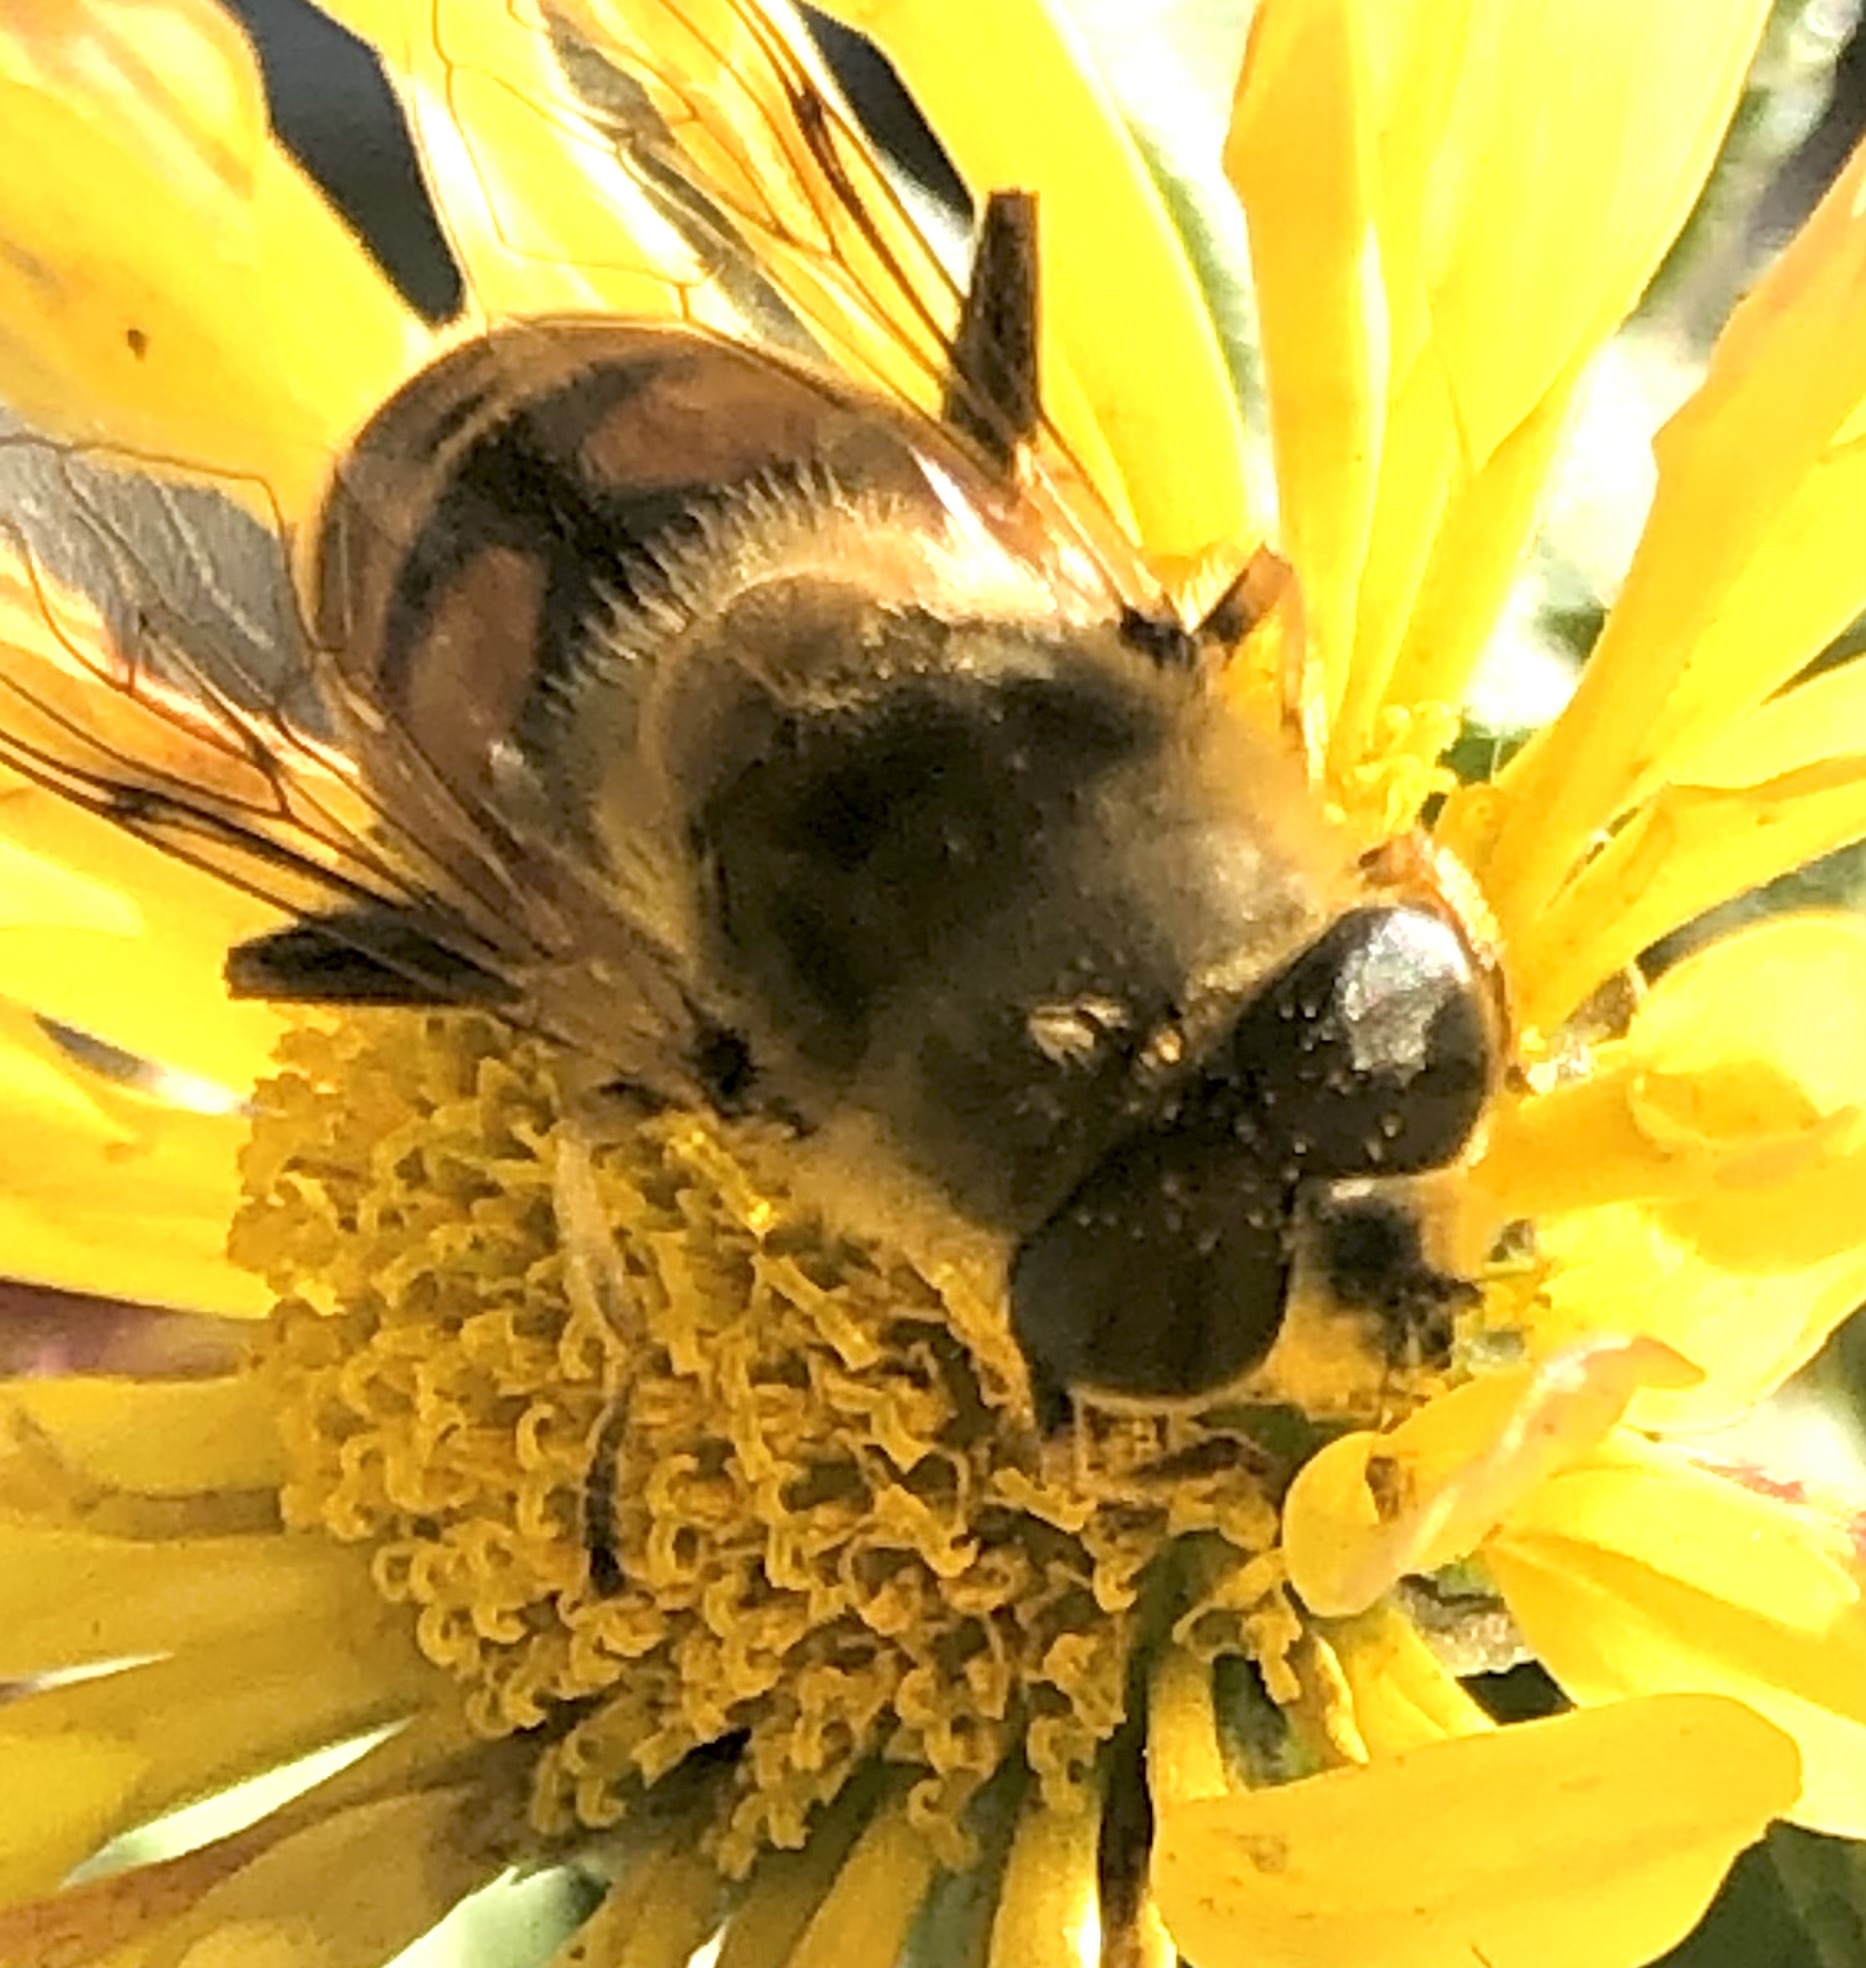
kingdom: Animalia
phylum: Arthropoda
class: Insecta
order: Diptera
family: Syrphidae
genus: Eristalis
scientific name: Eristalis tenax
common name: Drone fly
